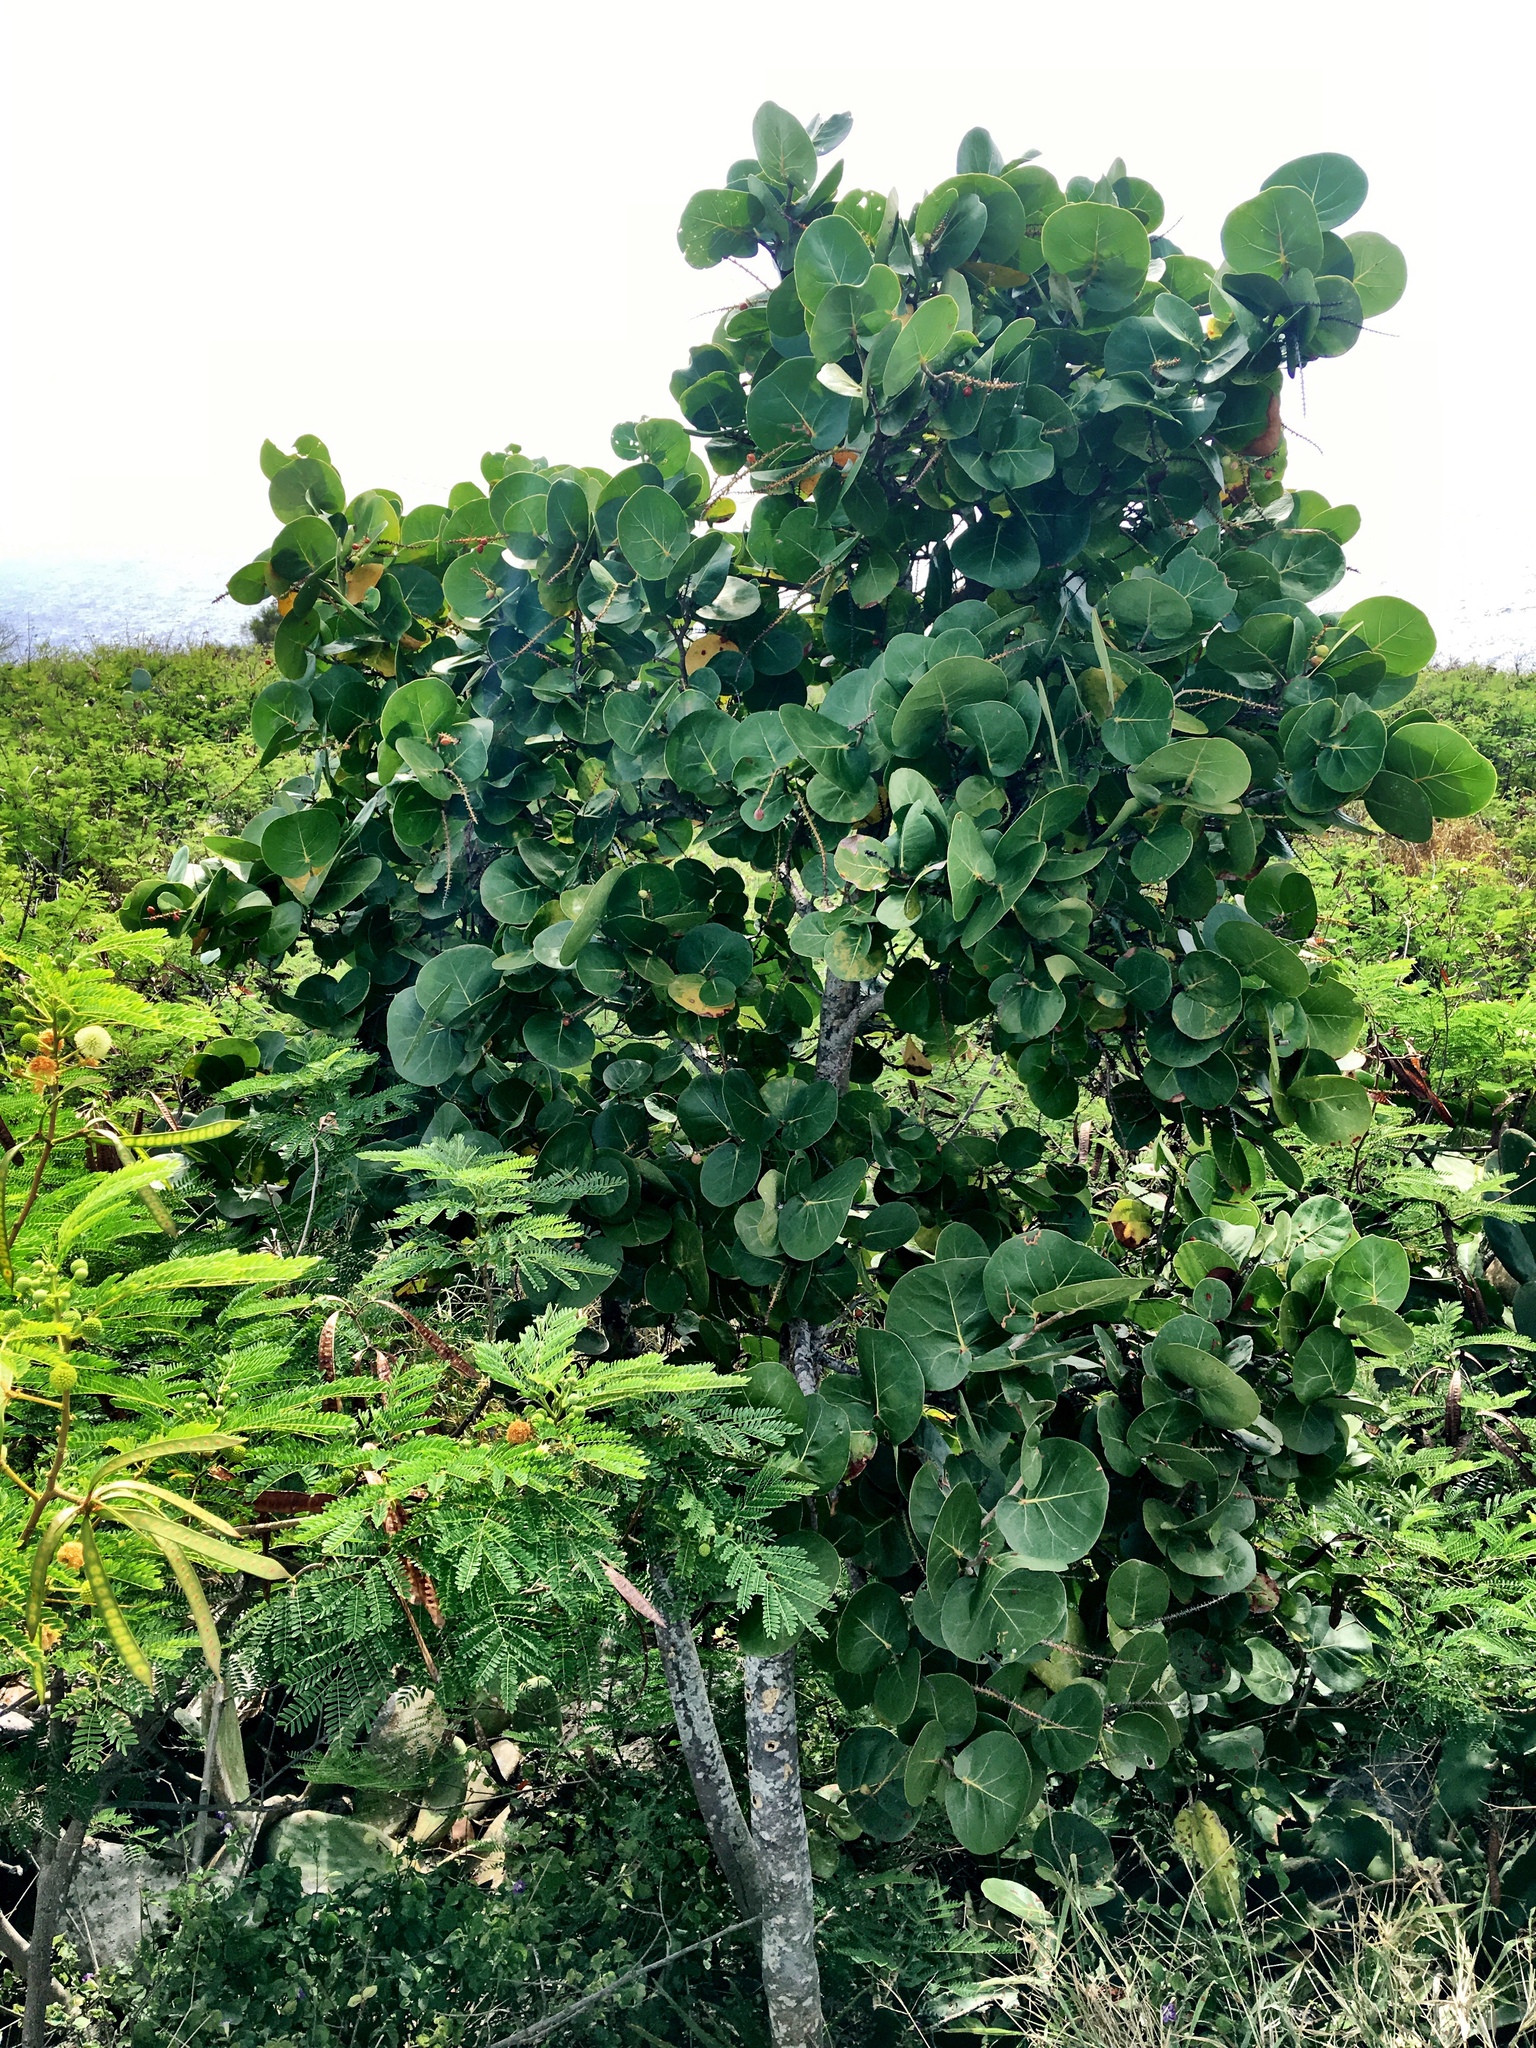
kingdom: Plantae
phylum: Tracheophyta
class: Magnoliopsida
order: Caryophyllales
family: Polygonaceae
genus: Coccoloba
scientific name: Coccoloba uvifera
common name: Seagrape
